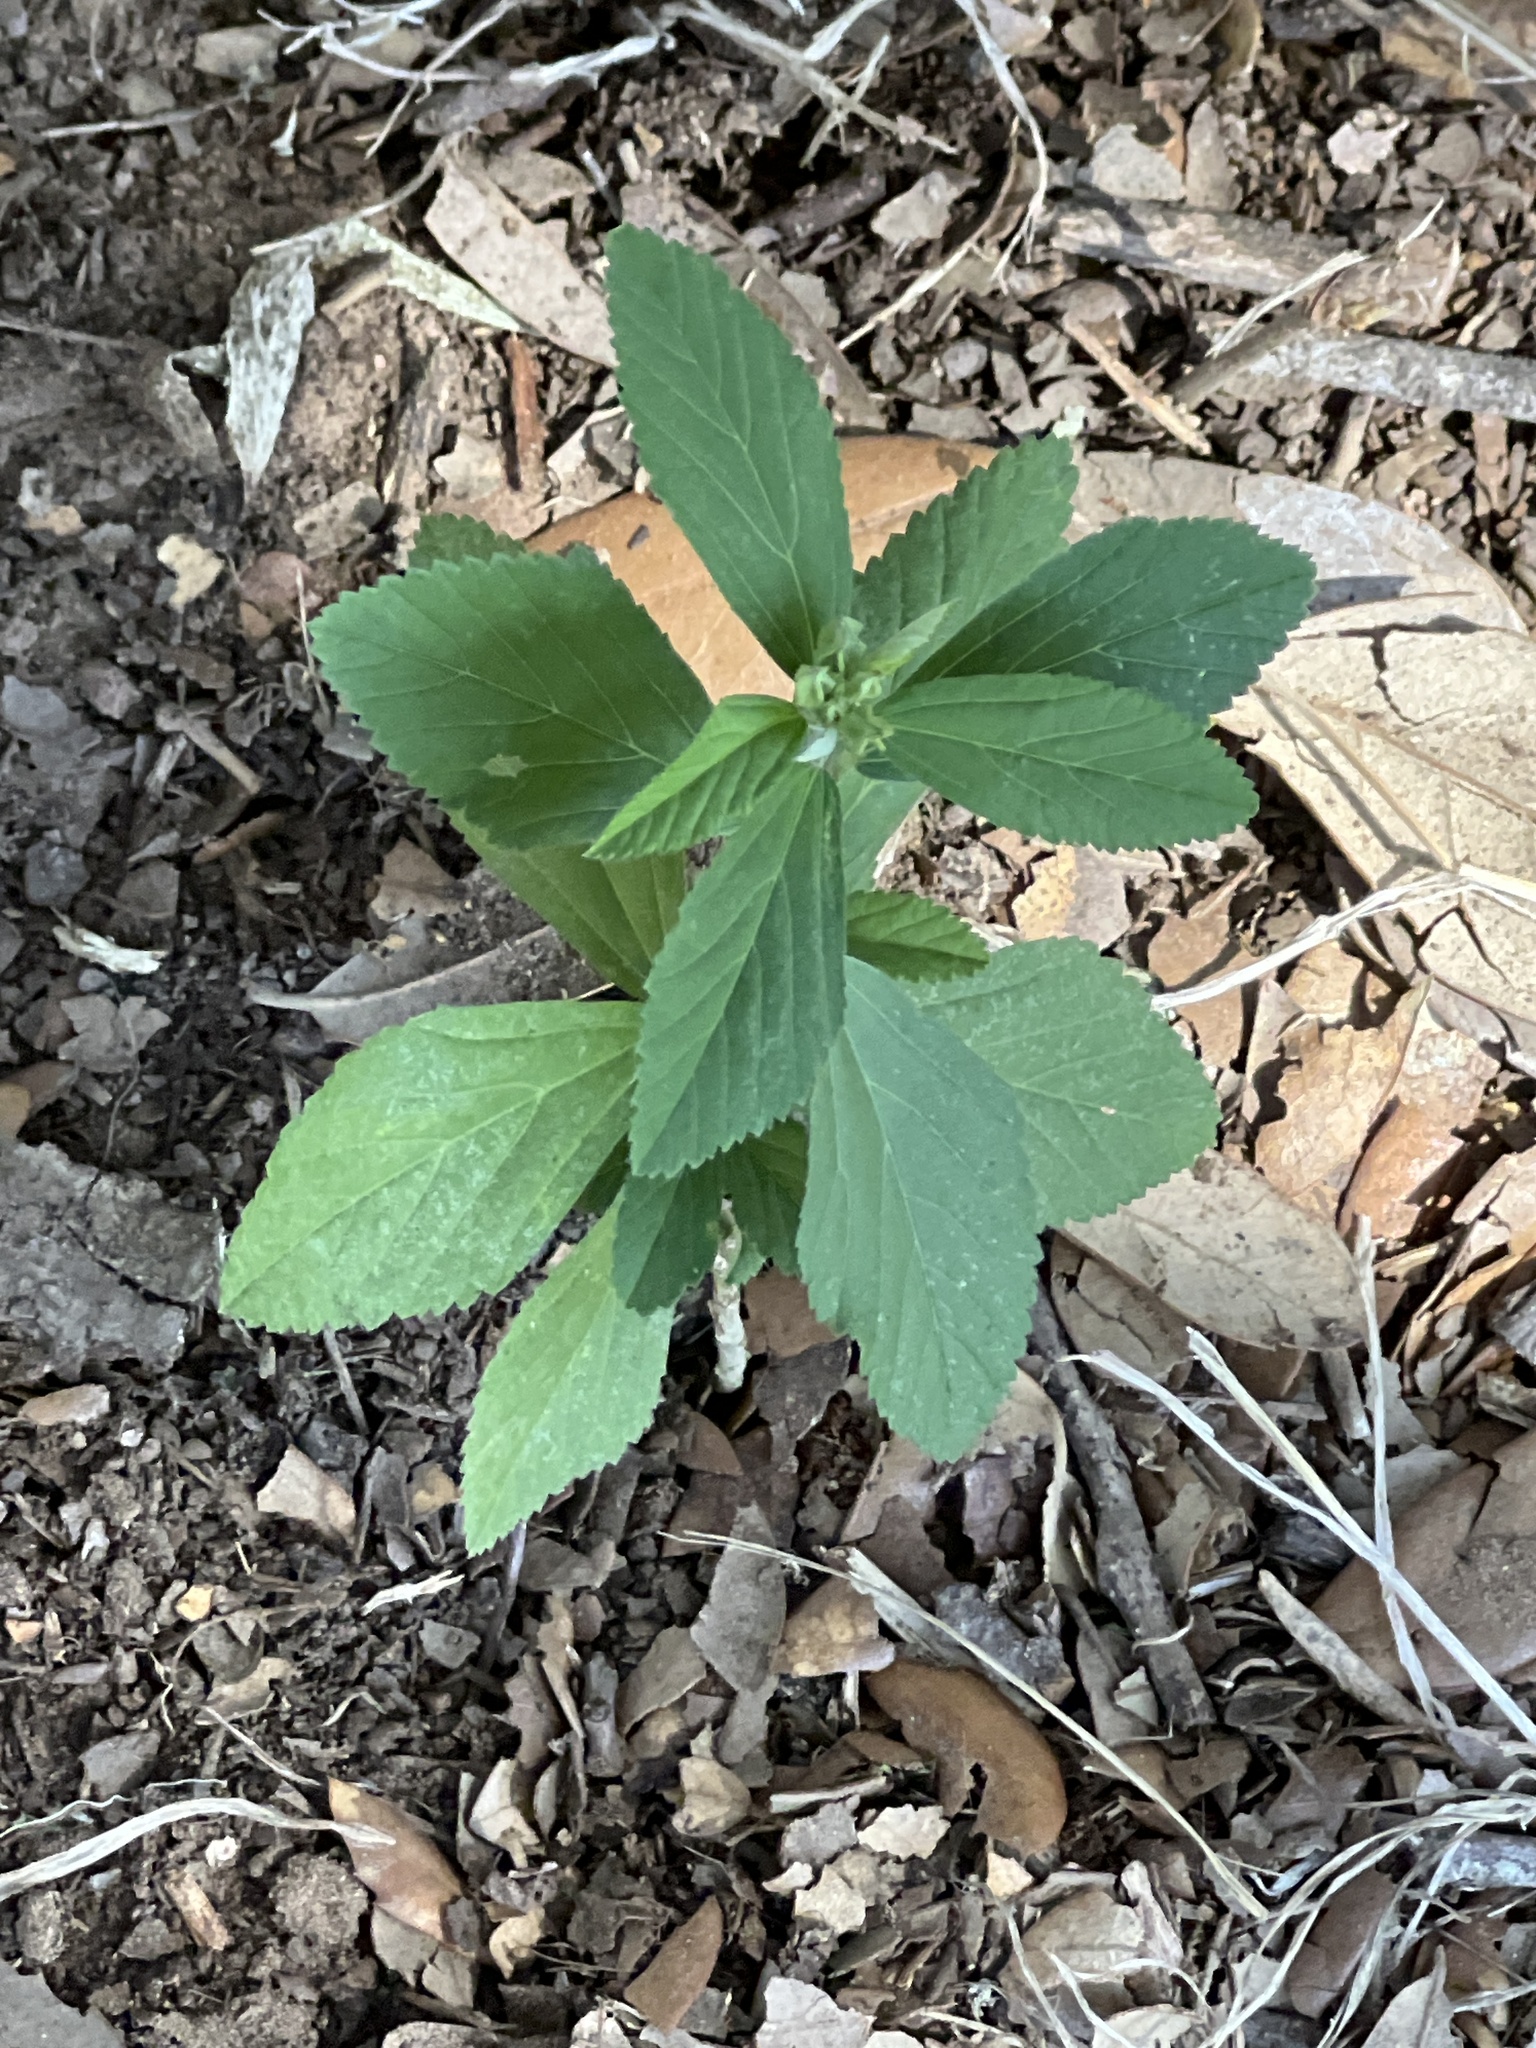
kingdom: Plantae
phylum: Tracheophyta
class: Magnoliopsida
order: Malvales
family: Malvaceae
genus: Sida
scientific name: Sida rhombifolia
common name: Queensland-hemp
